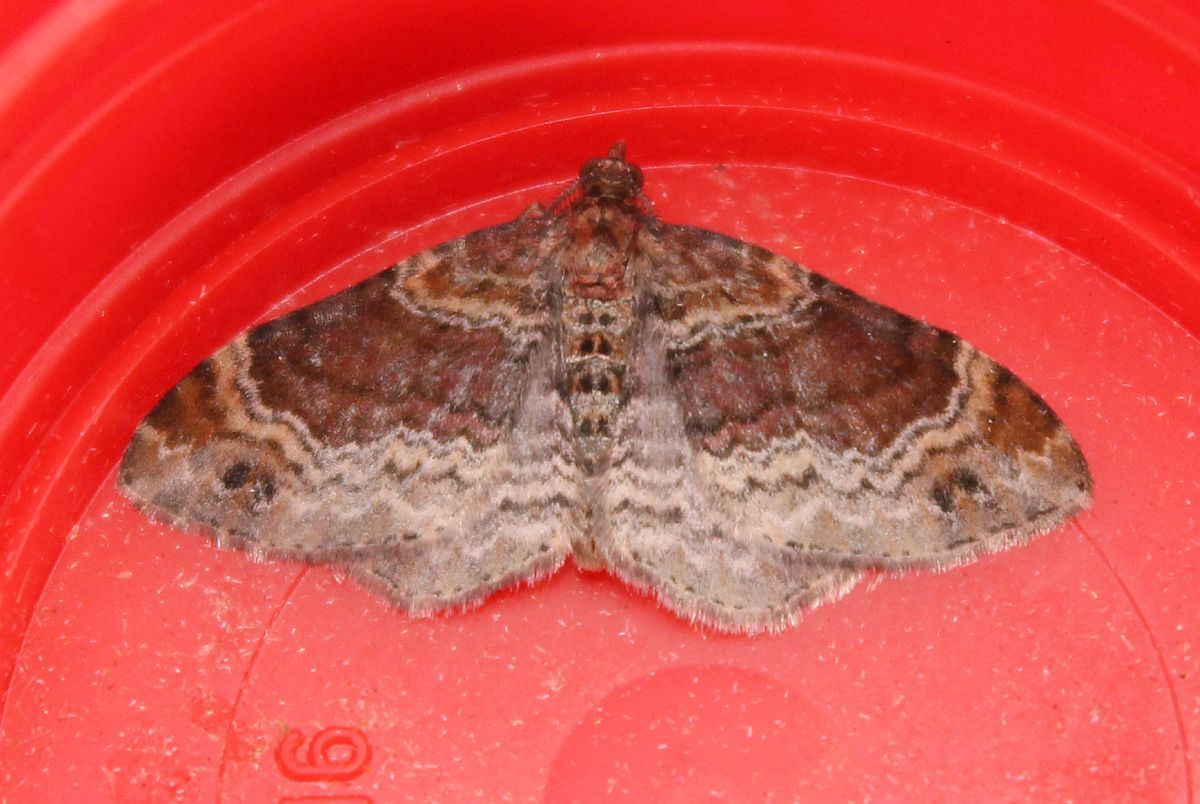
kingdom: Animalia
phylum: Arthropoda
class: Insecta
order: Lepidoptera
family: Geometridae
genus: Xanthorhoe
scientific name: Xanthorhoe spadicearia
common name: Red twin-spot carpet
